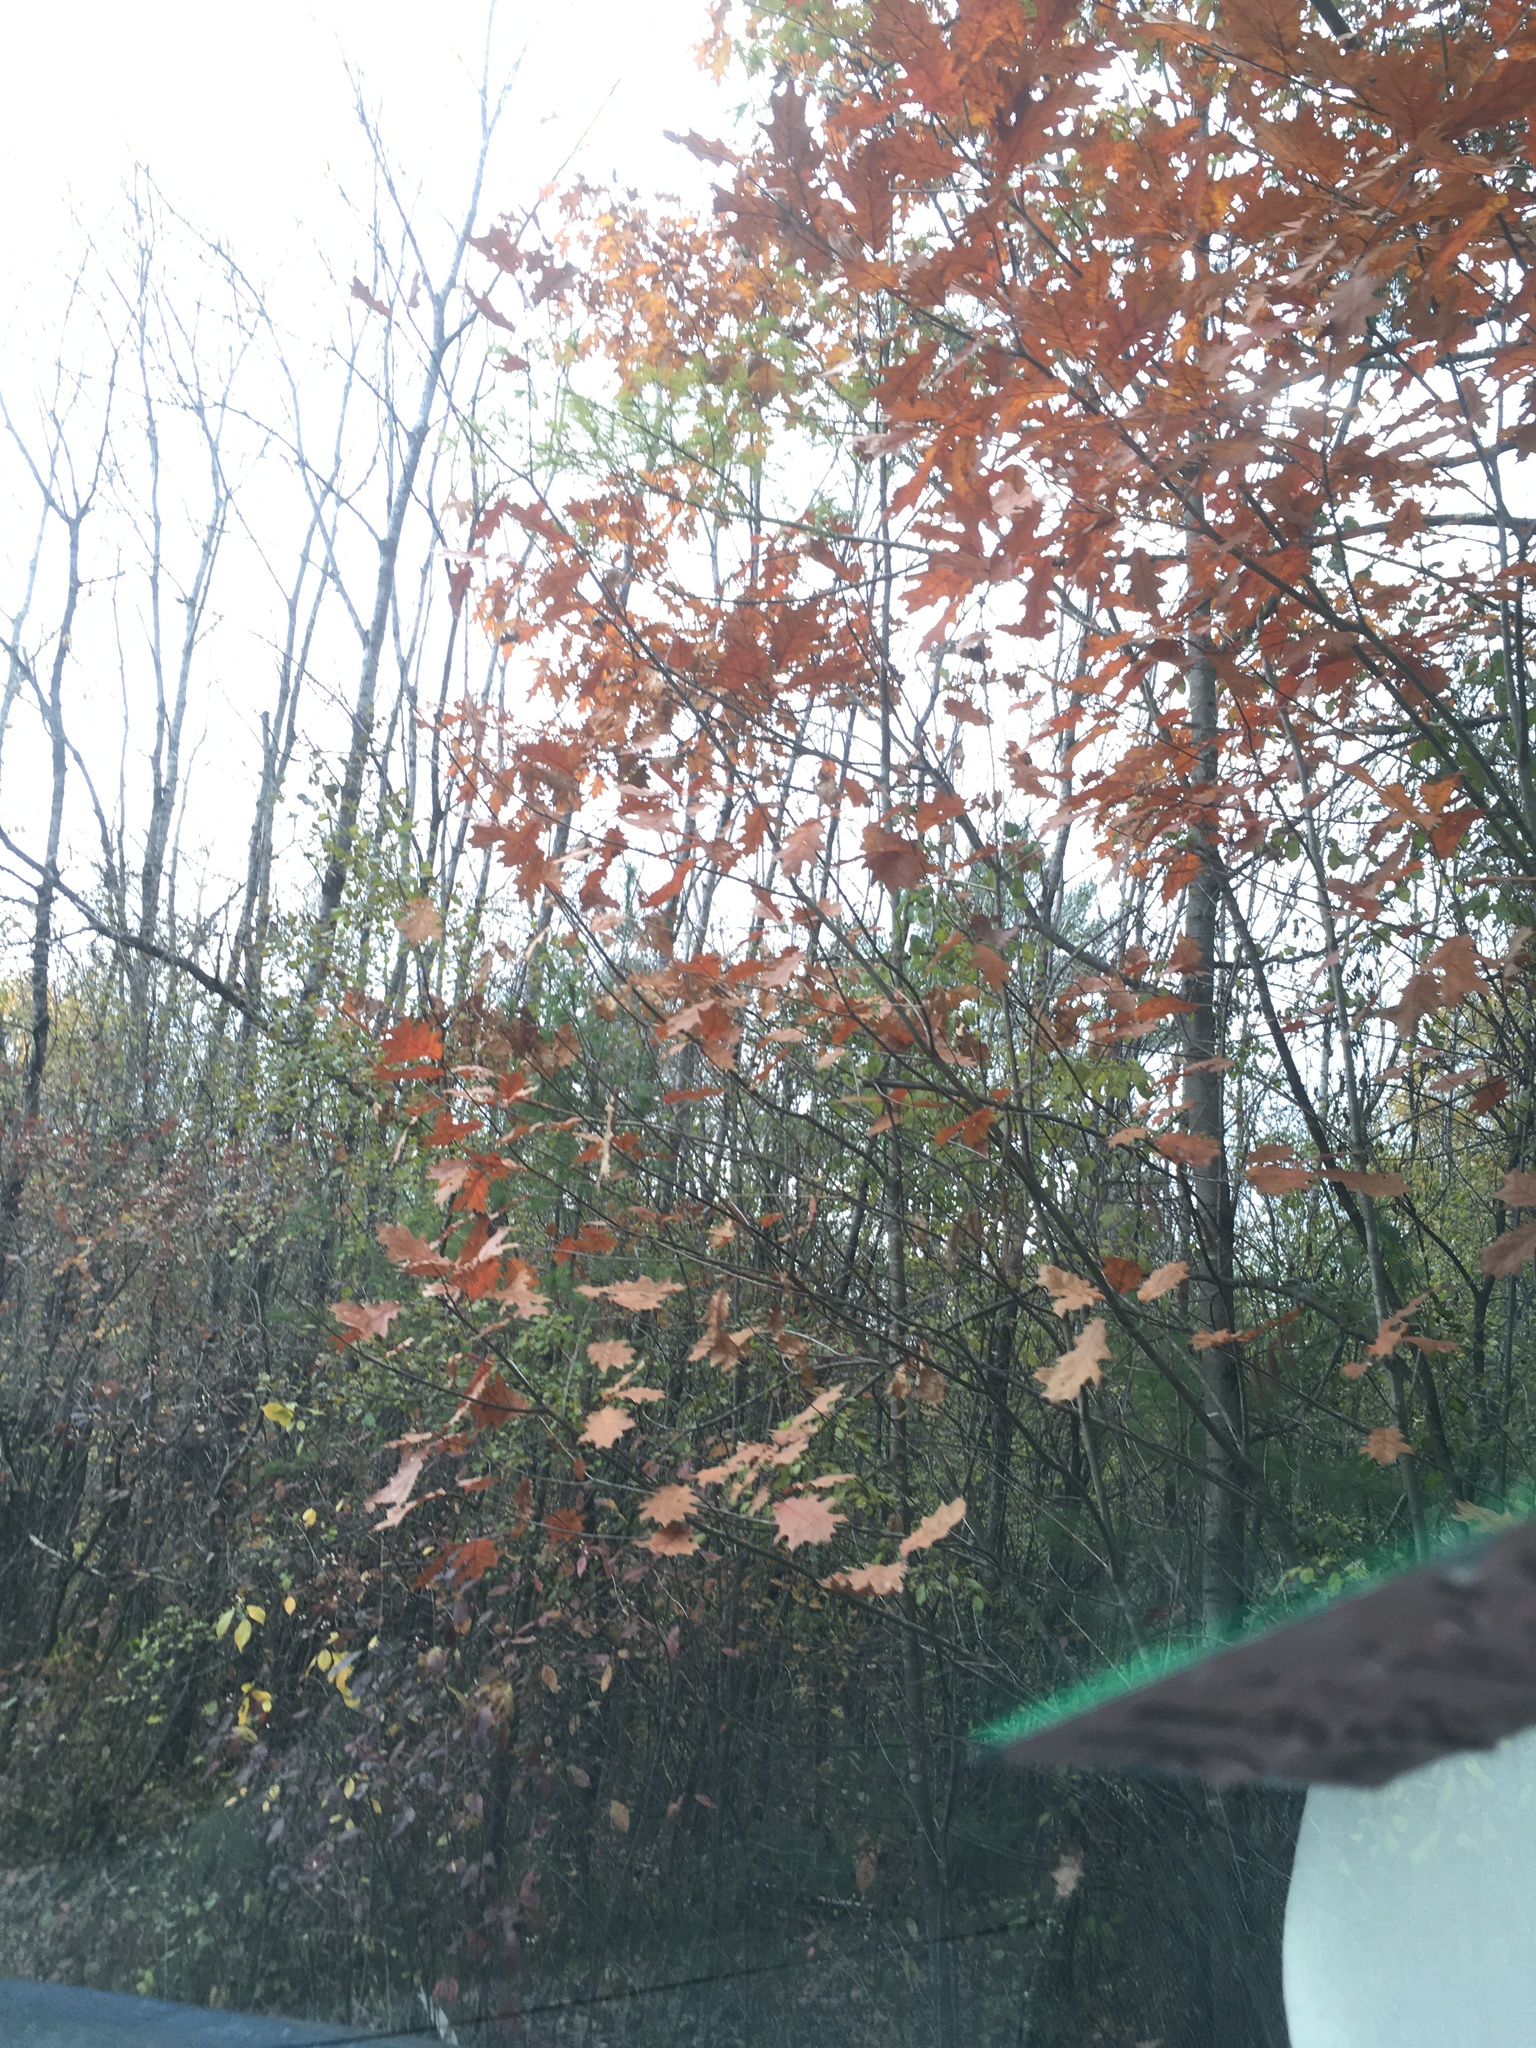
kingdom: Plantae
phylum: Tracheophyta
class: Magnoliopsida
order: Fagales
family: Fagaceae
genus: Quercus
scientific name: Quercus rubra
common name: Red oak
